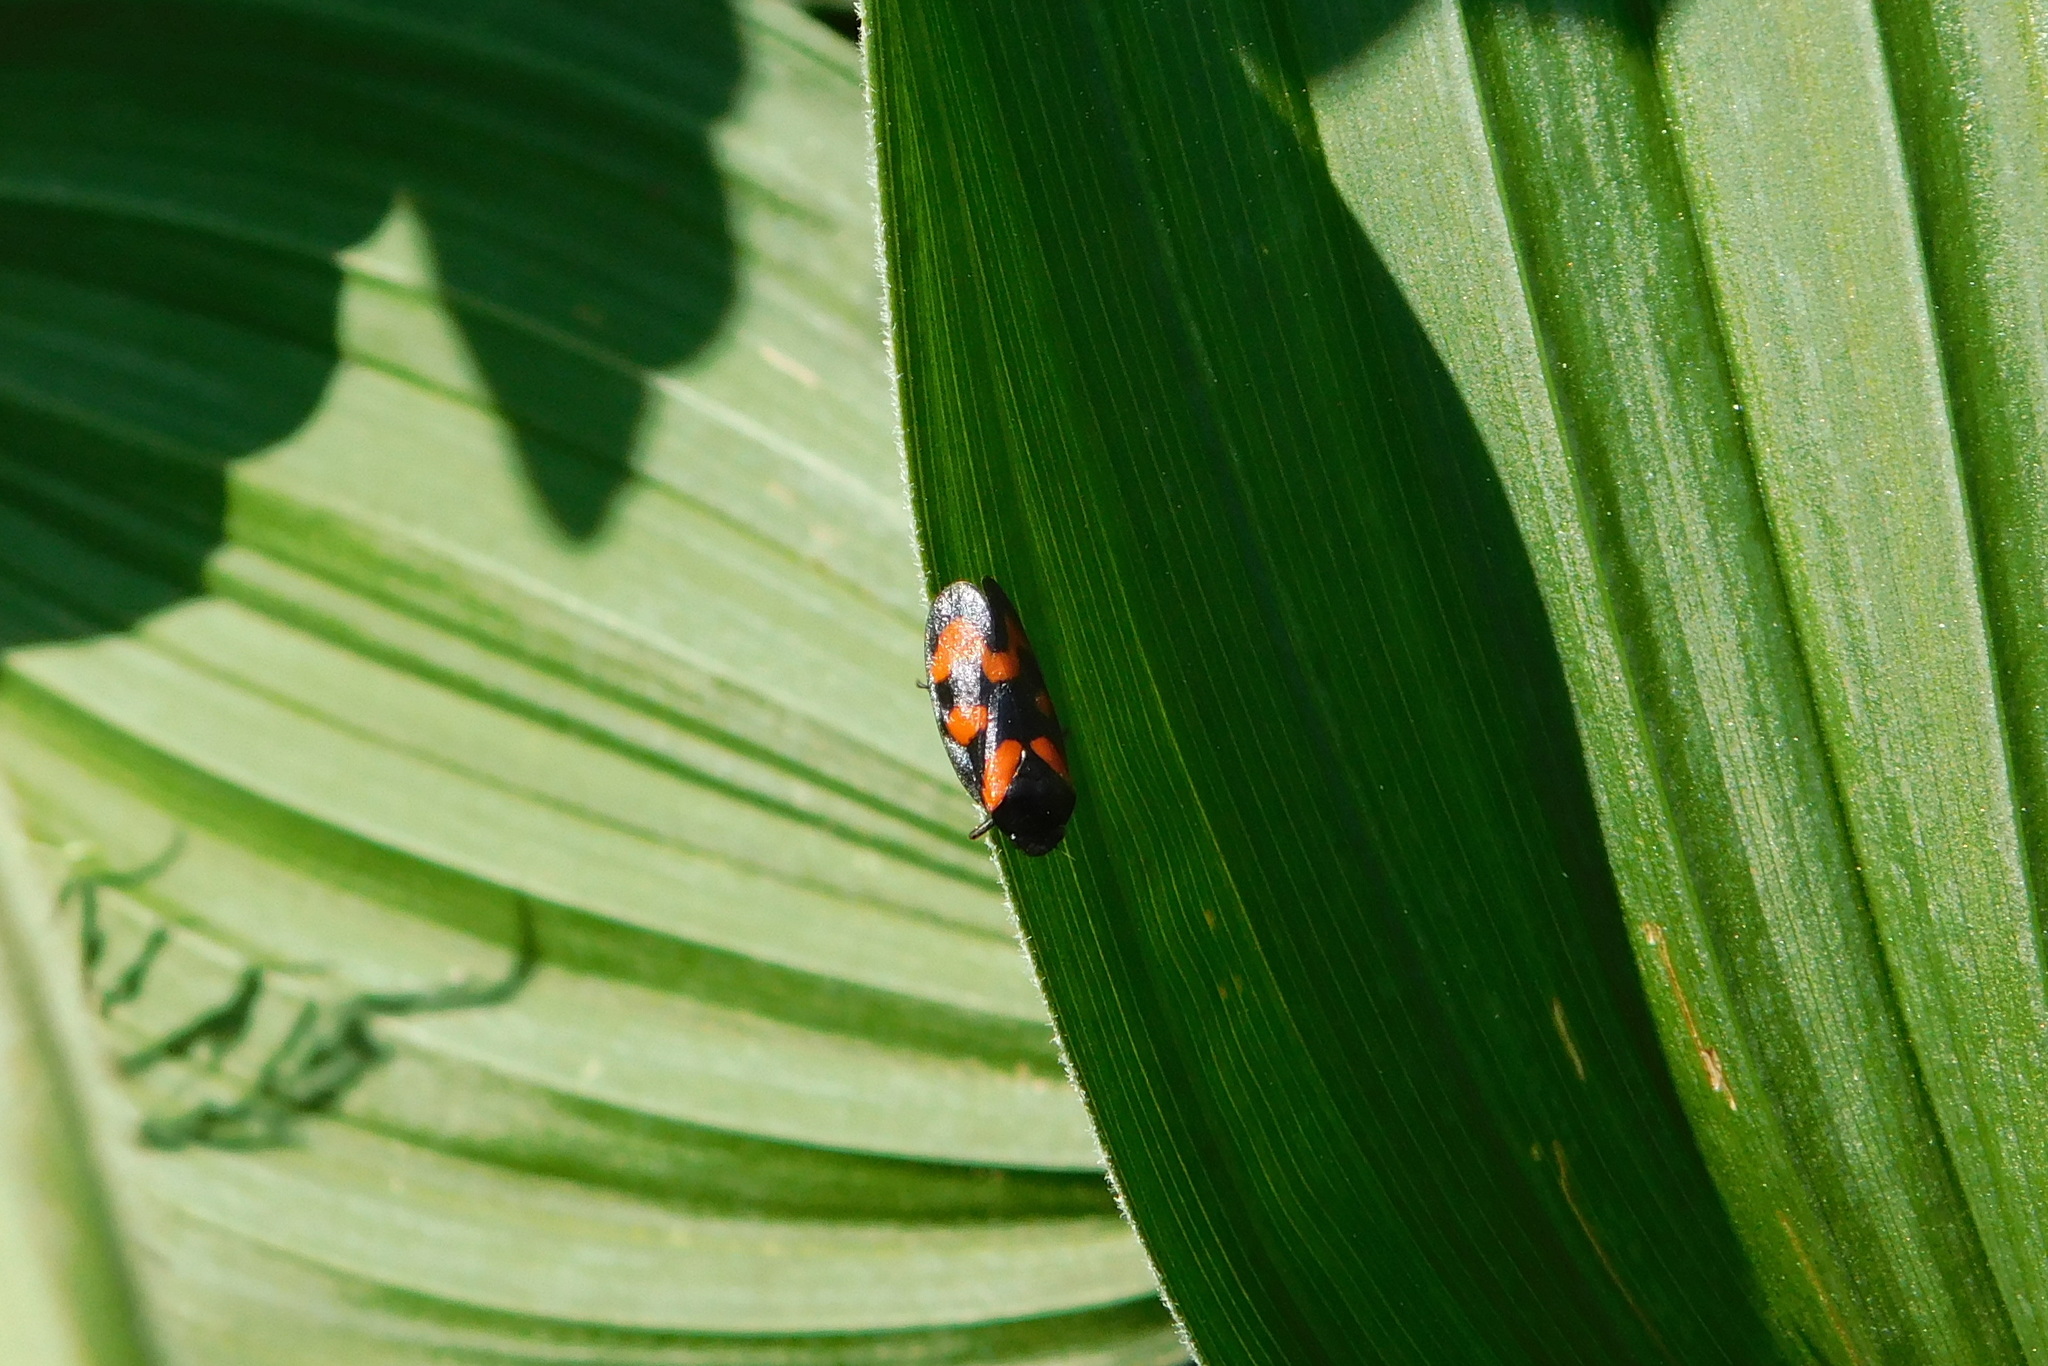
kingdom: Animalia
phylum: Arthropoda
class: Insecta
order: Hemiptera
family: Cercopidae
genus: Cercopis
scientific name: Cercopis vulnerata
